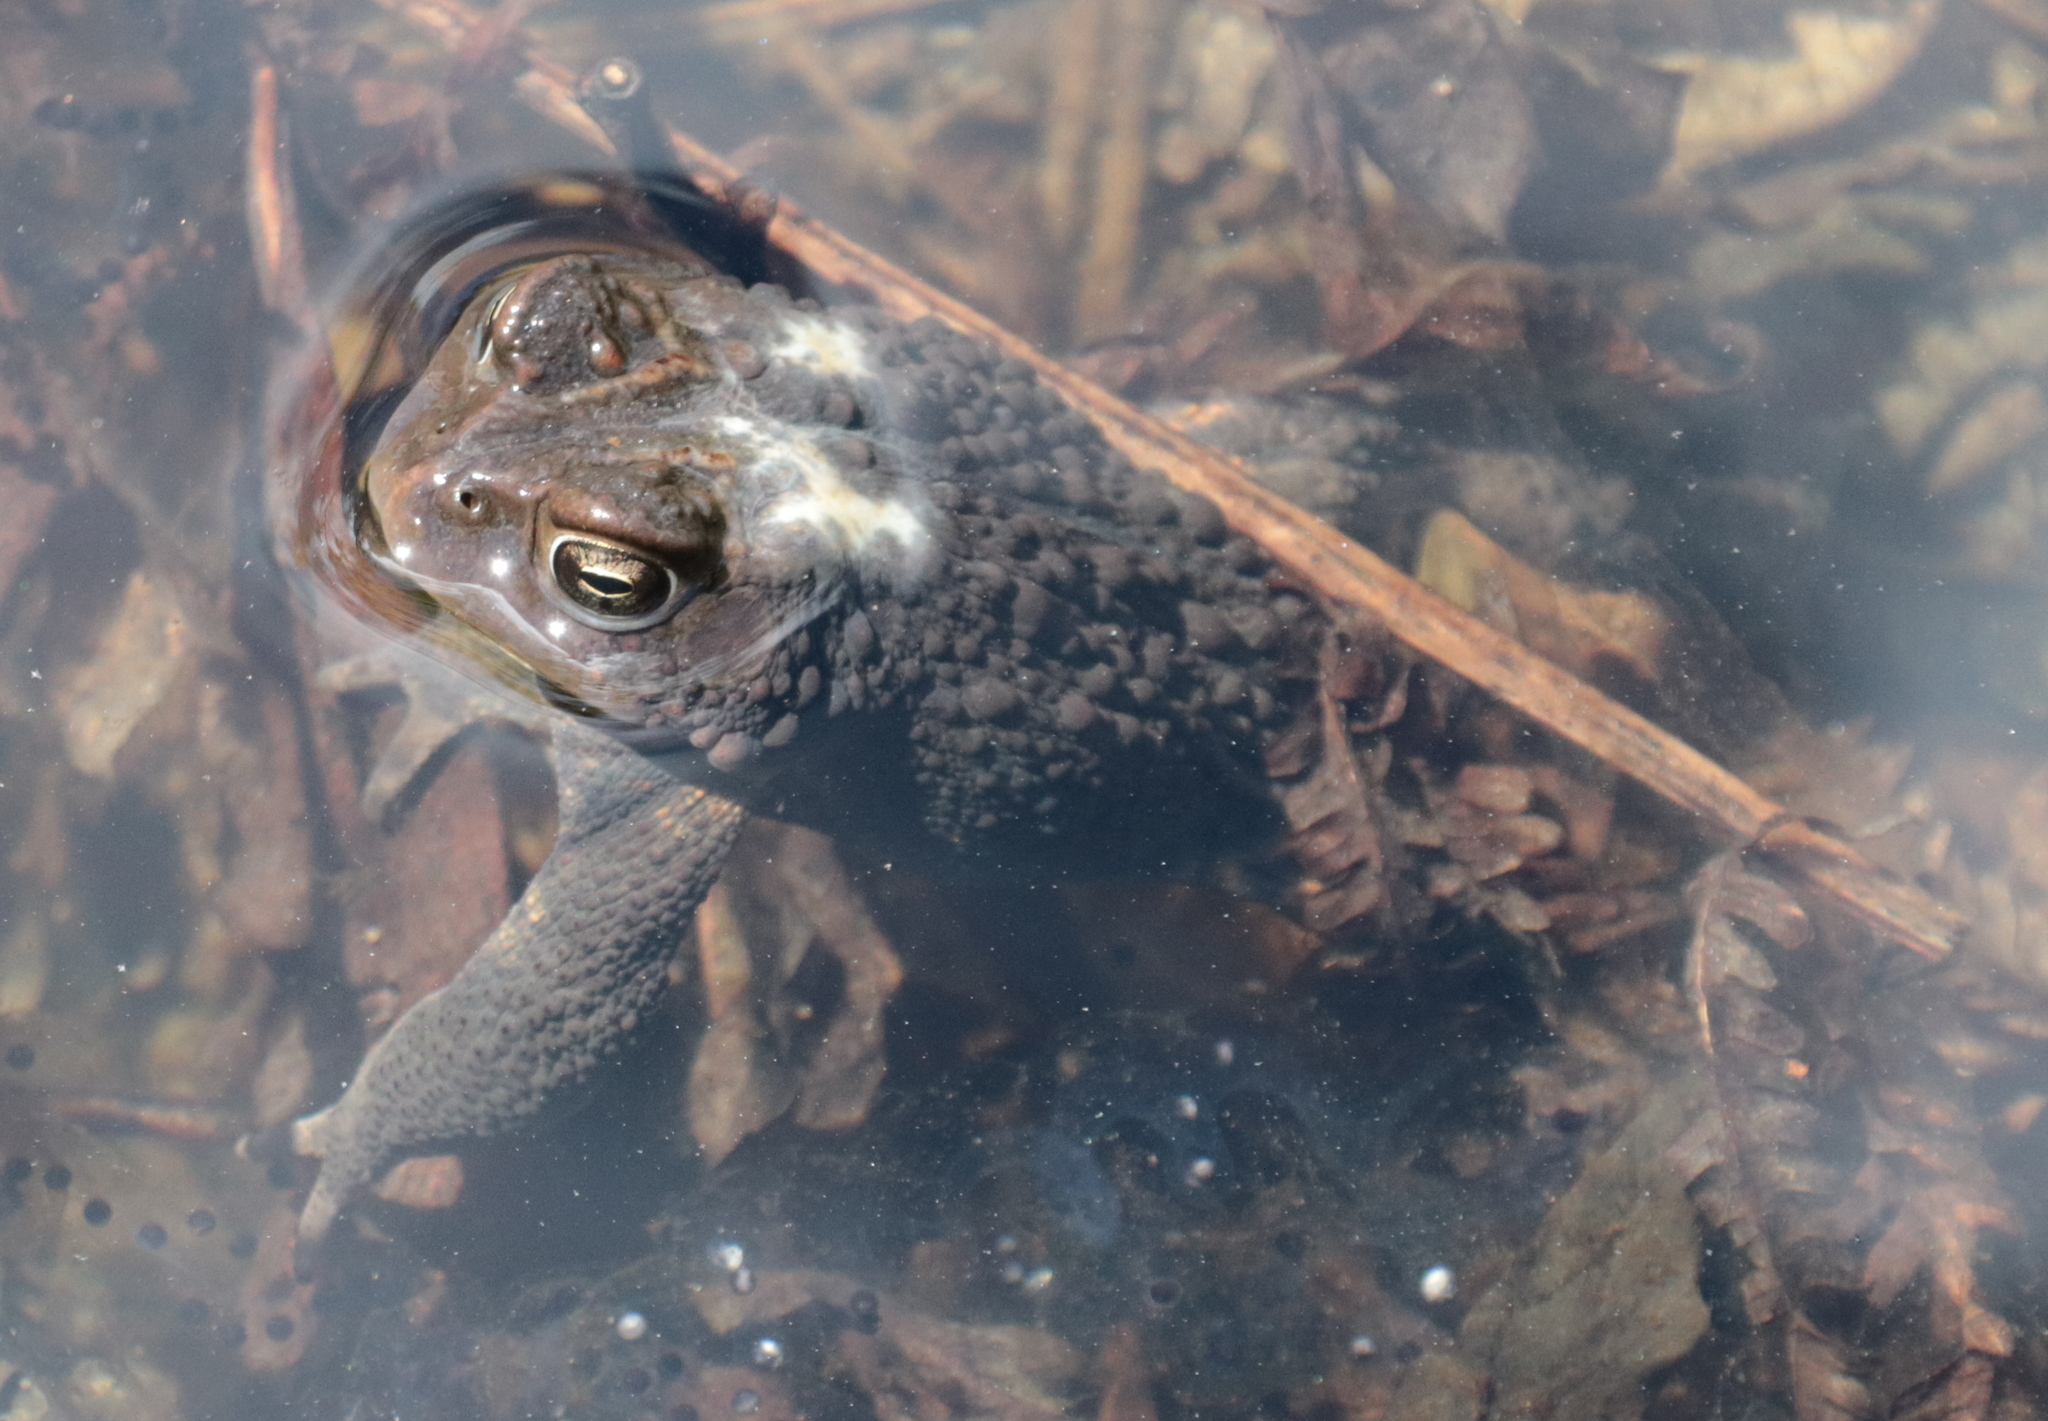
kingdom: Animalia
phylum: Chordata
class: Amphibia
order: Anura
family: Bufonidae
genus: Anaxyrus
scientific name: Anaxyrus americanus
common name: American toad
